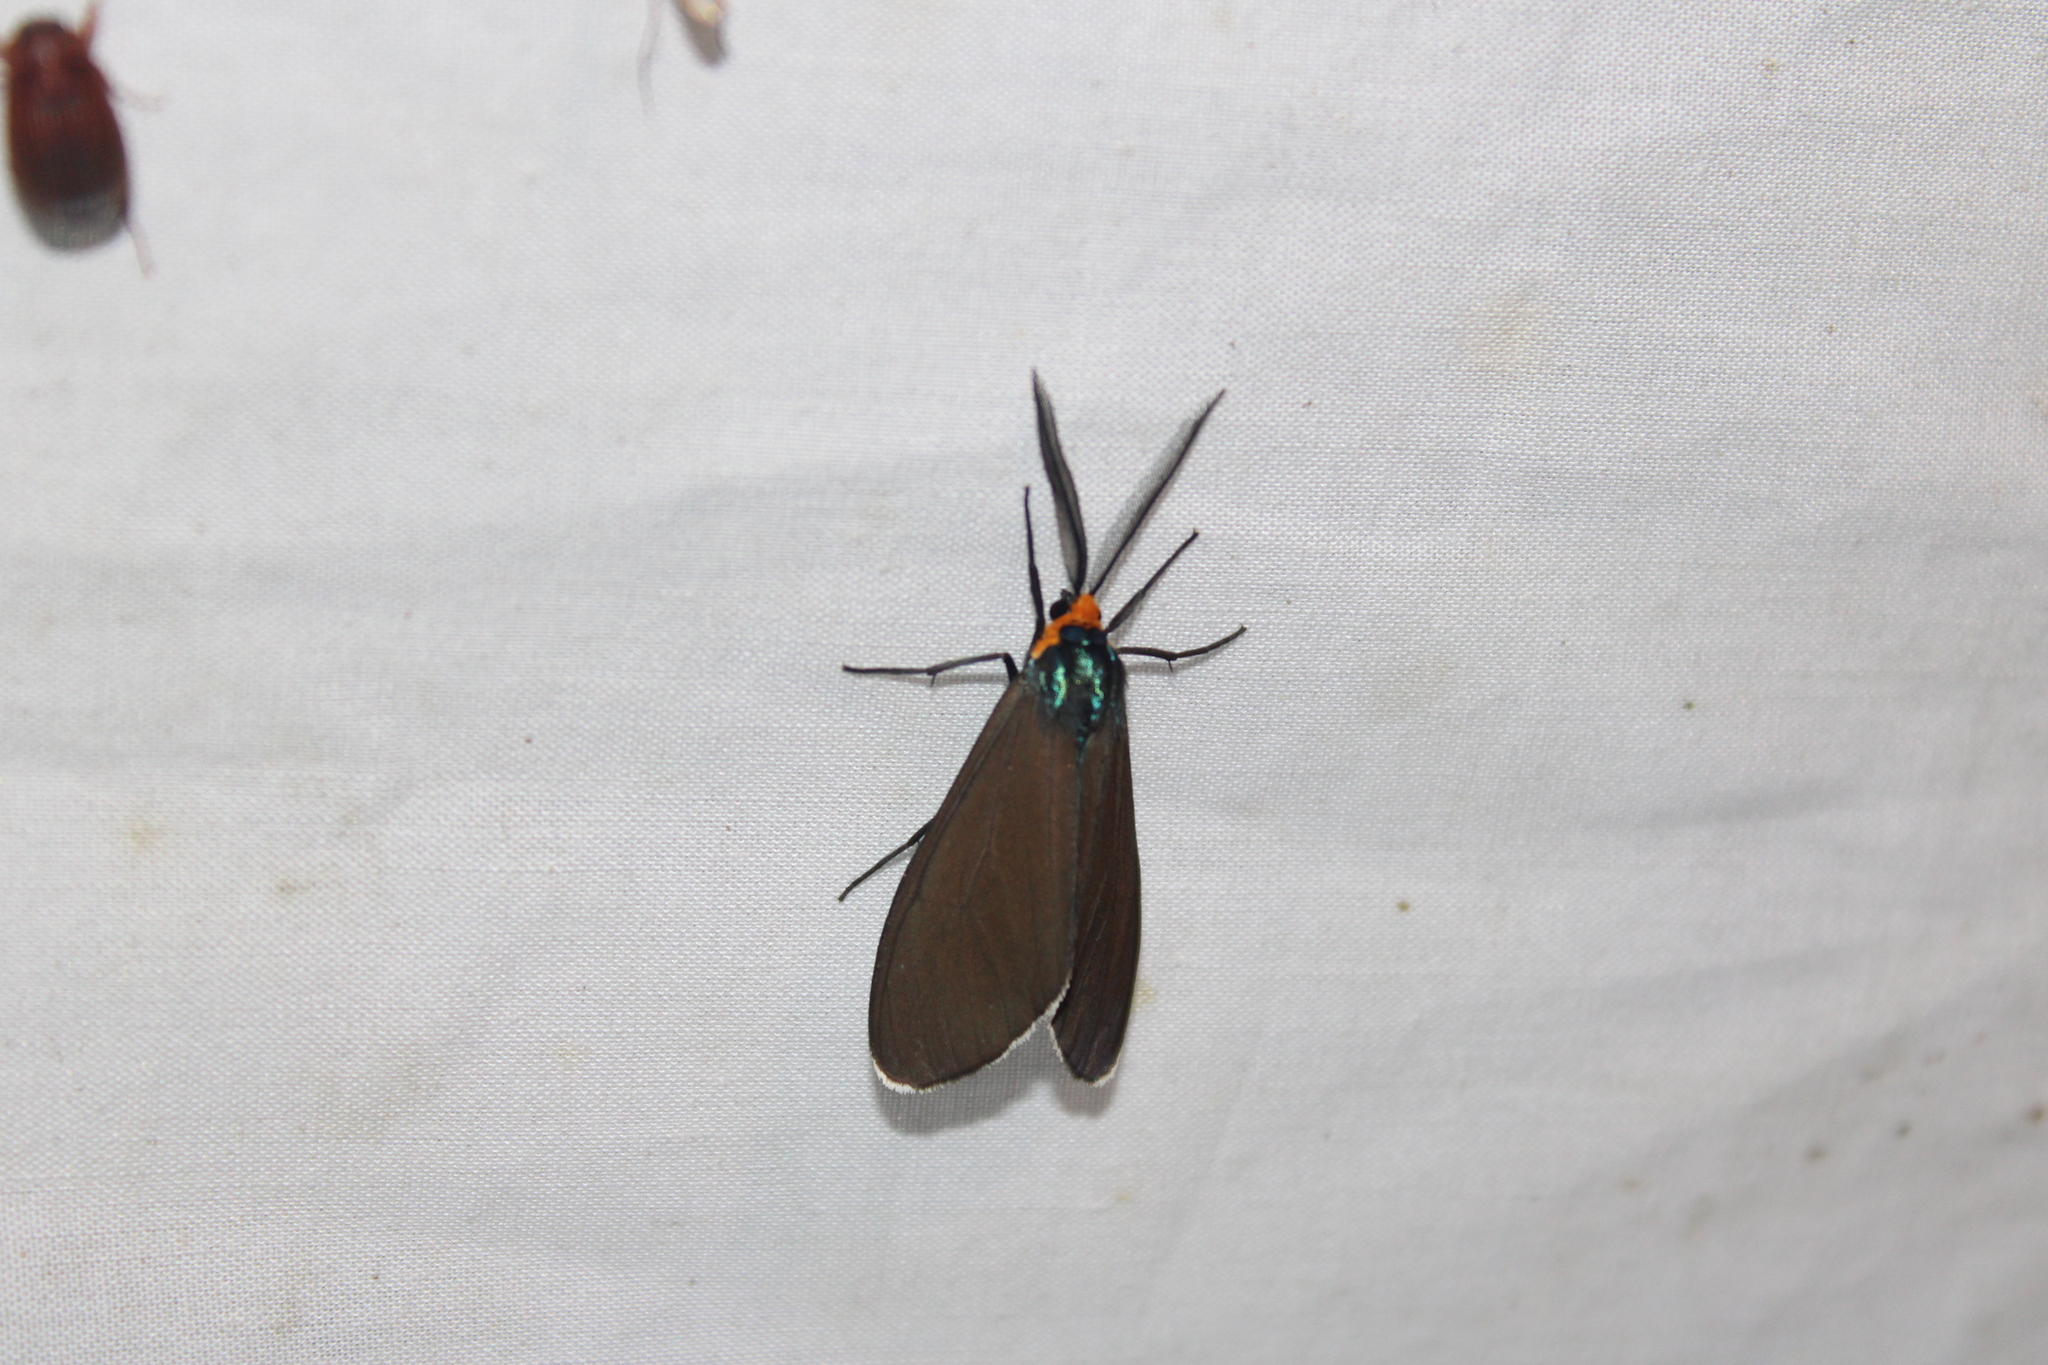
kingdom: Animalia
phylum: Arthropoda
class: Insecta
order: Lepidoptera
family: Erebidae
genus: Ctenucha
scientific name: Ctenucha virginica
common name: Virginia ctenucha moth
